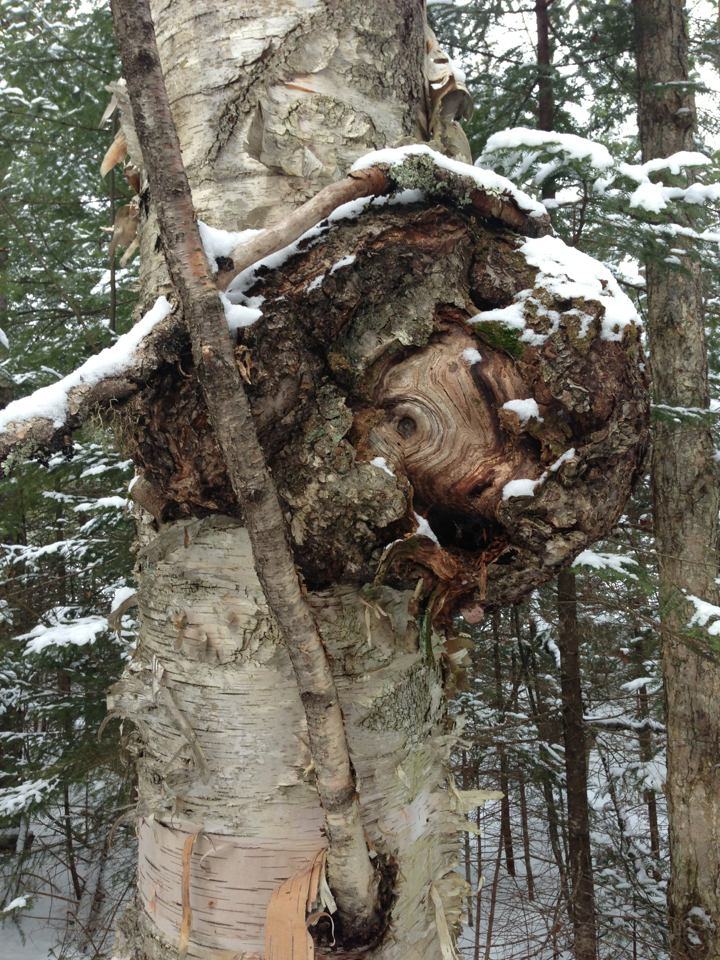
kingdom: Plantae
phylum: Tracheophyta
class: Magnoliopsida
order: Fagales
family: Betulaceae
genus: Betula
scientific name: Betula papyrifera
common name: Paper birch
